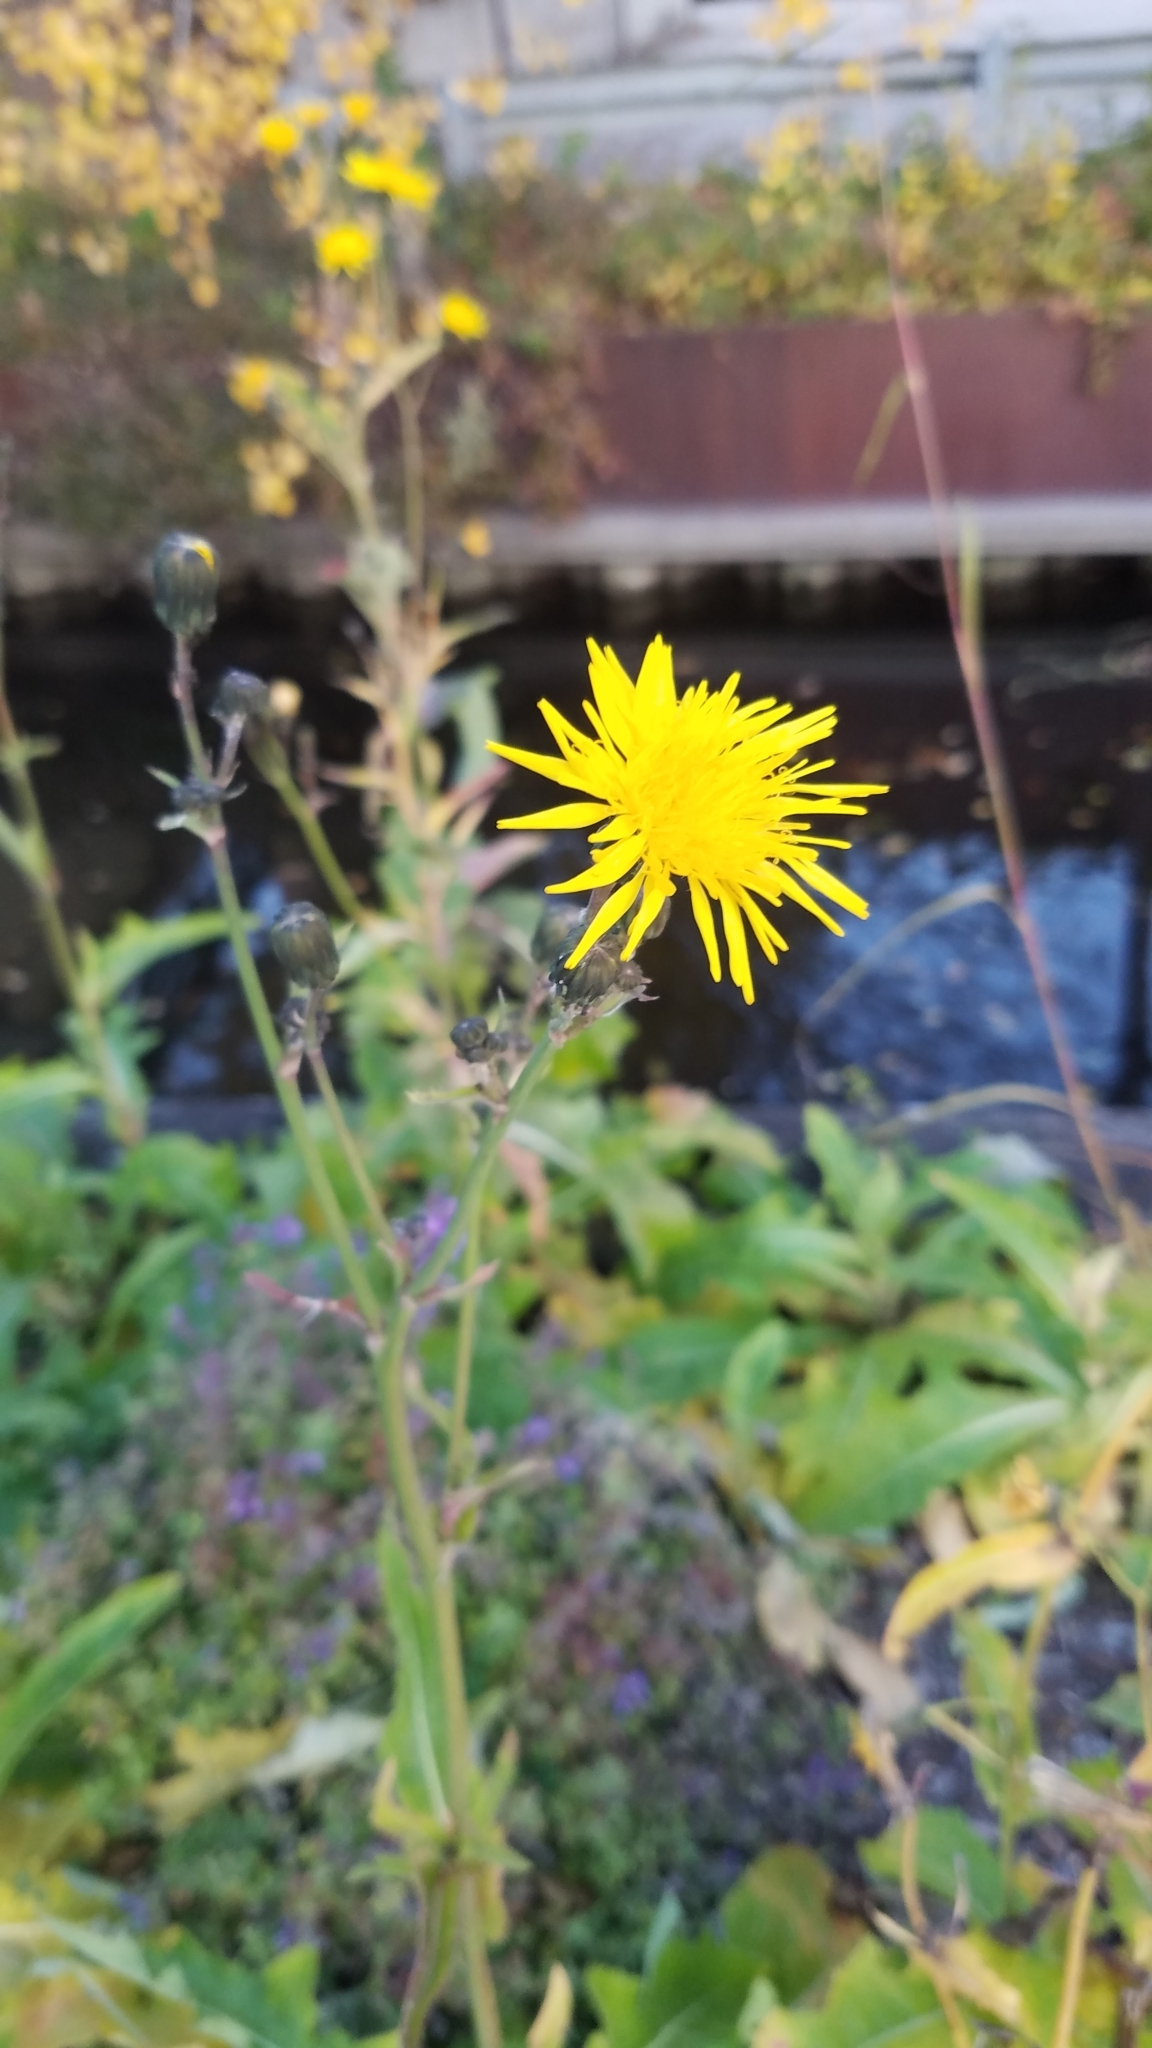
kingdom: Plantae
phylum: Tracheophyta
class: Magnoliopsida
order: Asterales
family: Asteraceae
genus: Sonchus
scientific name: Sonchus arvensis
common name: Perennial sow-thistle
